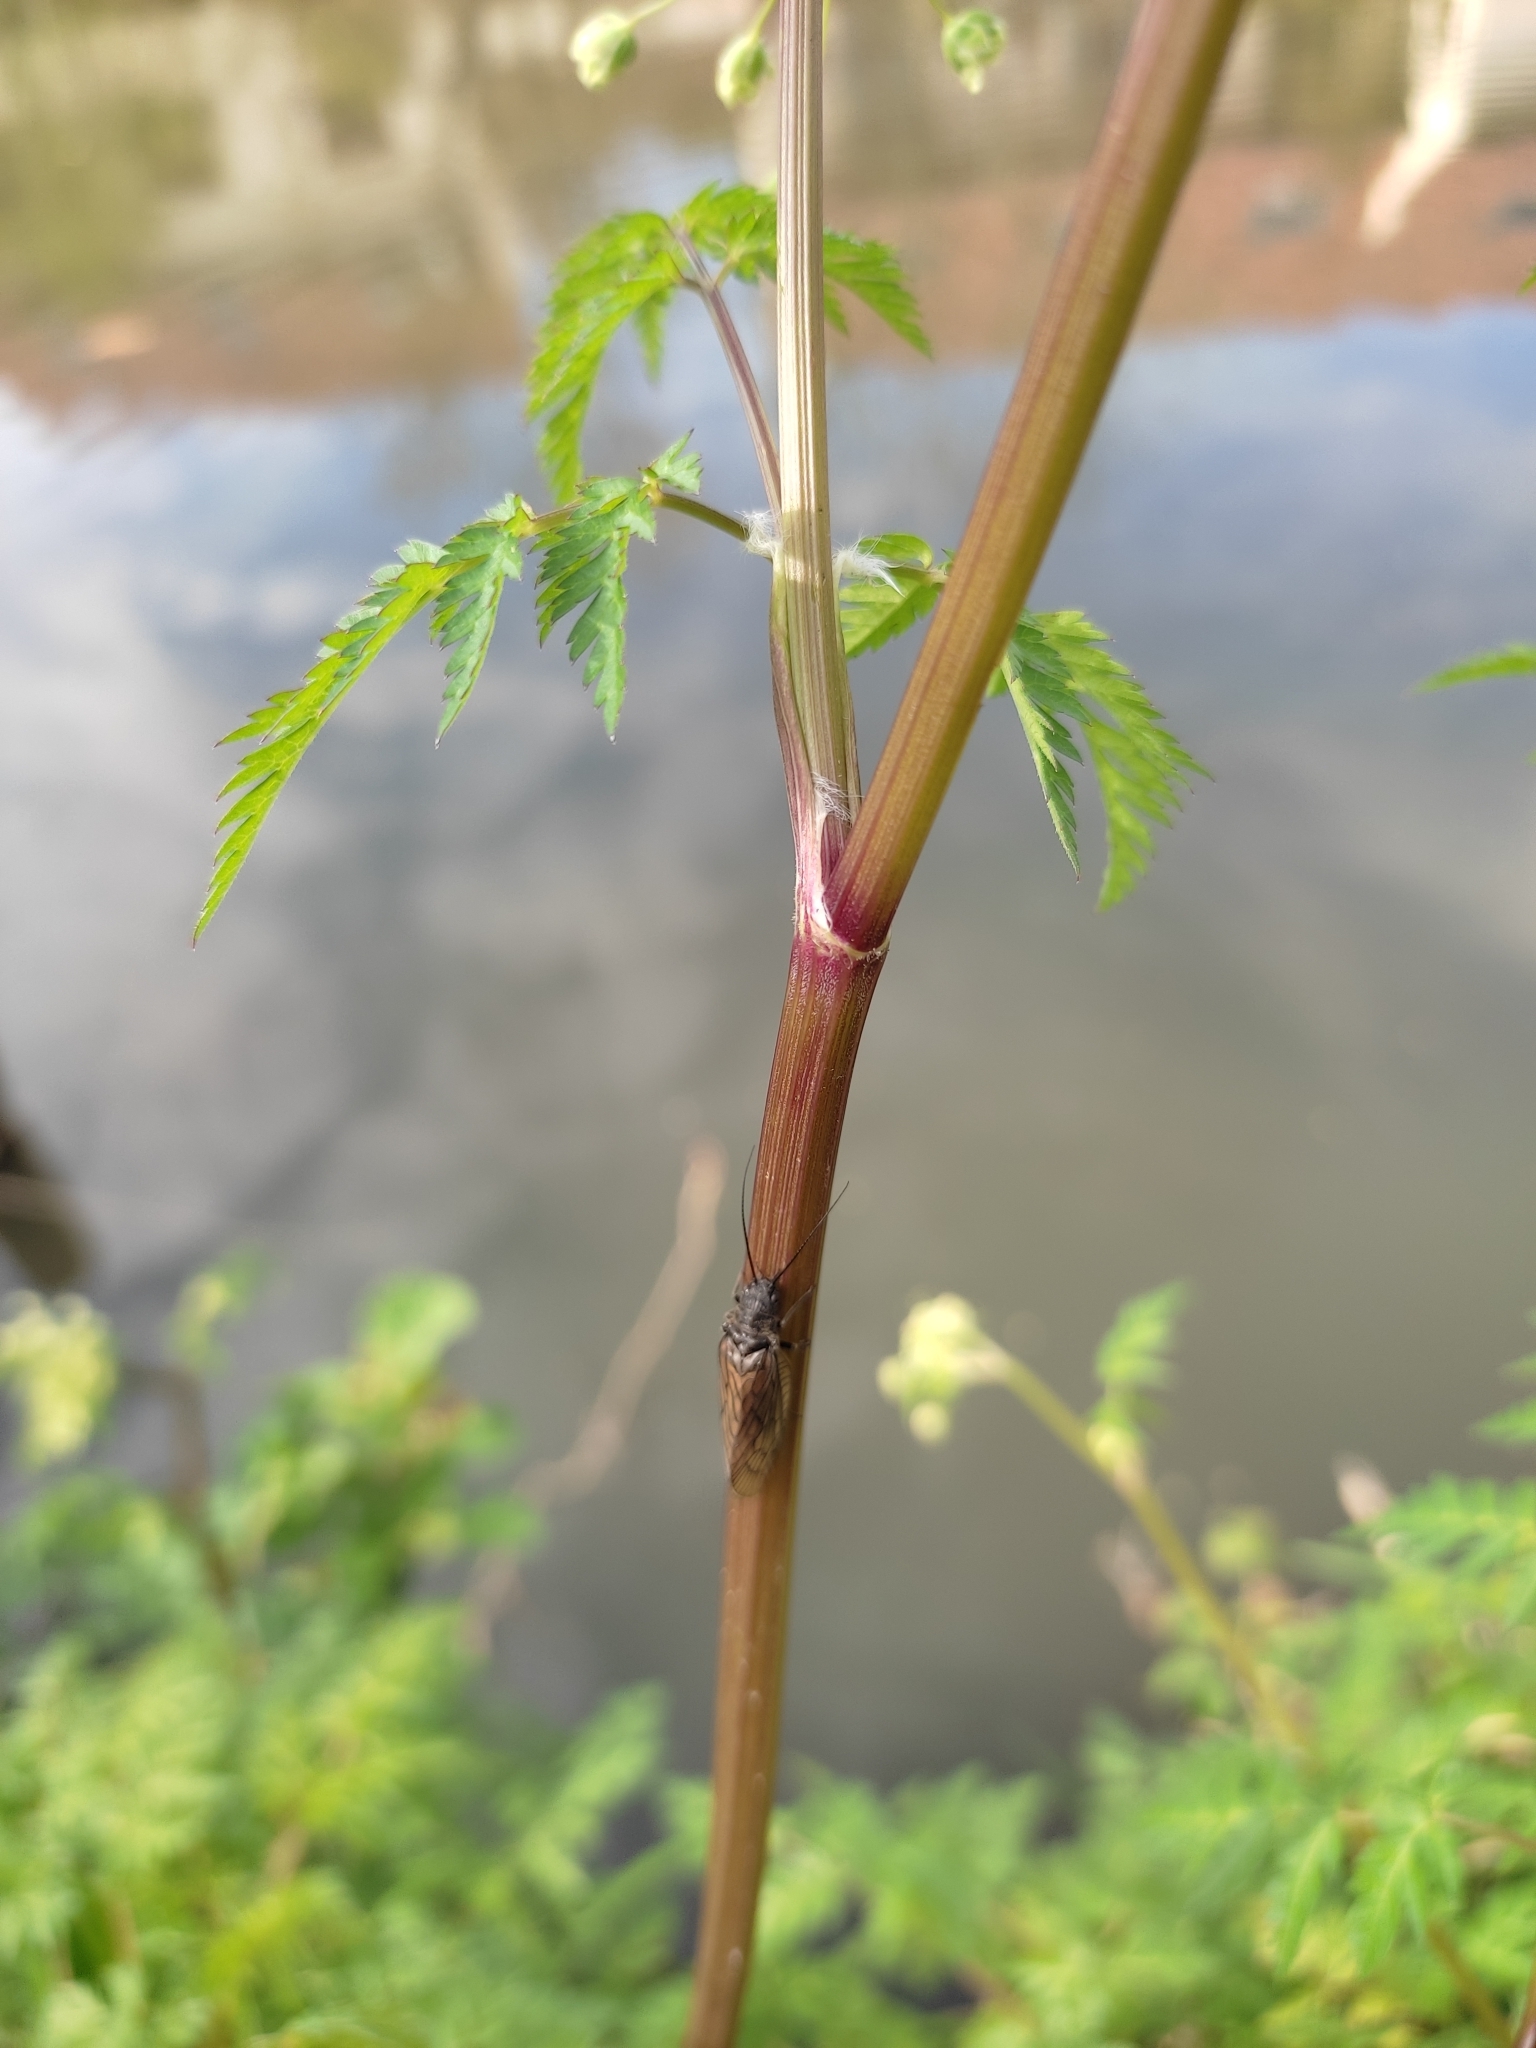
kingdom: Animalia
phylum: Arthropoda
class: Insecta
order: Megaloptera
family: Sialidae
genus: Sialis
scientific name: Sialis
